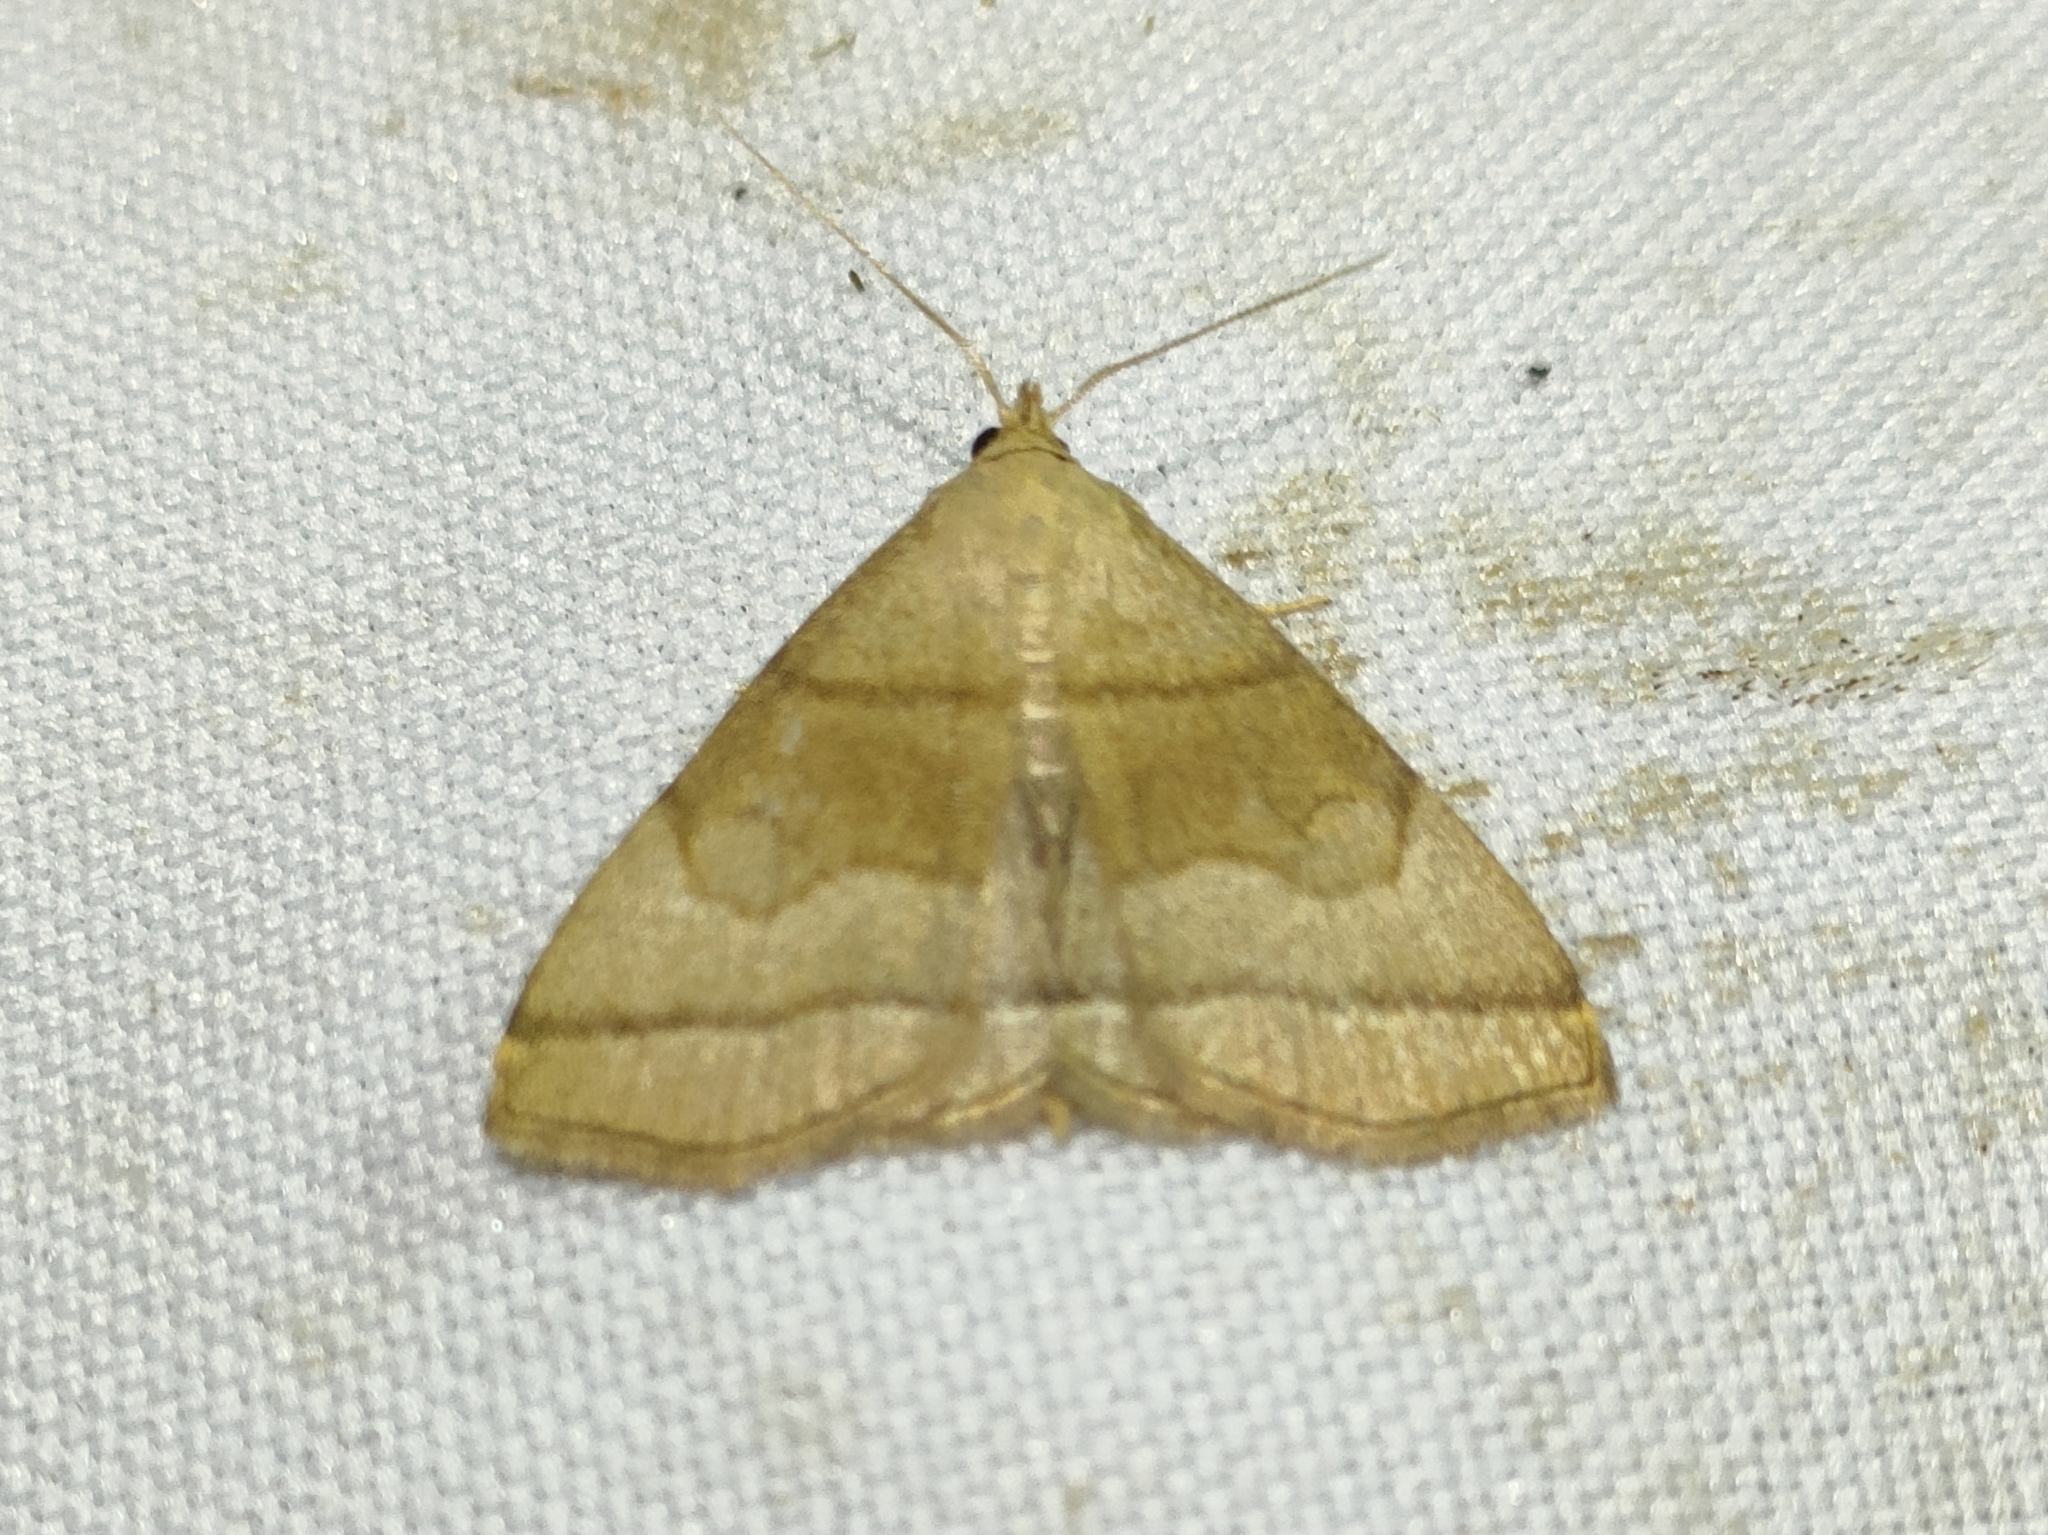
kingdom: Animalia
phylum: Arthropoda
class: Insecta
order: Lepidoptera
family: Erebidae
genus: Herminia
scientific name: Herminia tarsicrinalis
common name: Shaded fan-foot
